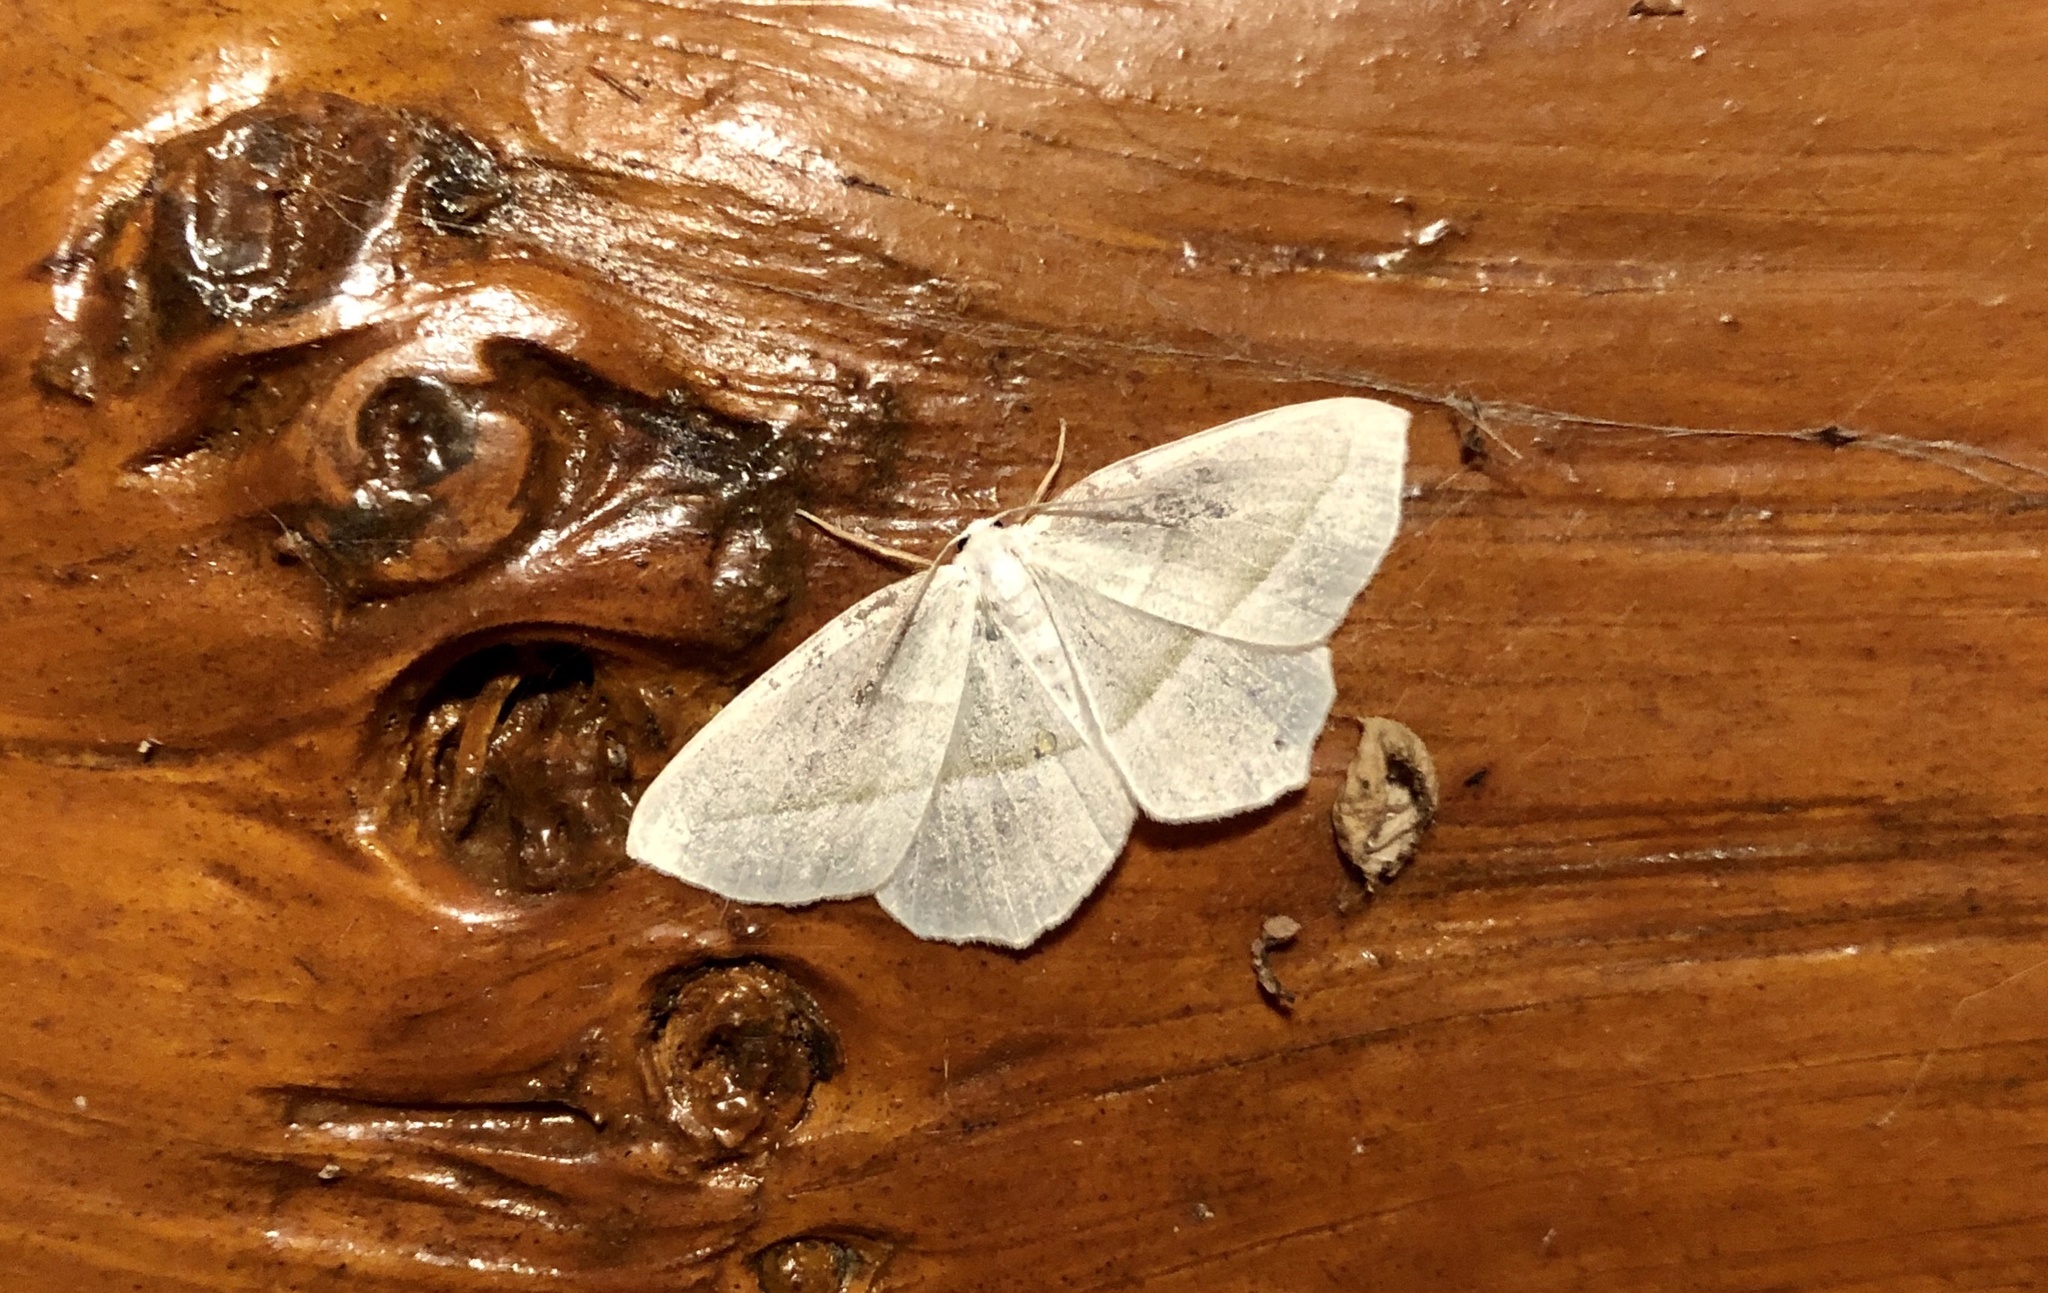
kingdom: Animalia
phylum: Arthropoda
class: Insecta
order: Lepidoptera
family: Geometridae
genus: Campaea
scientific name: Campaea perlata
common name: Fringed looper
